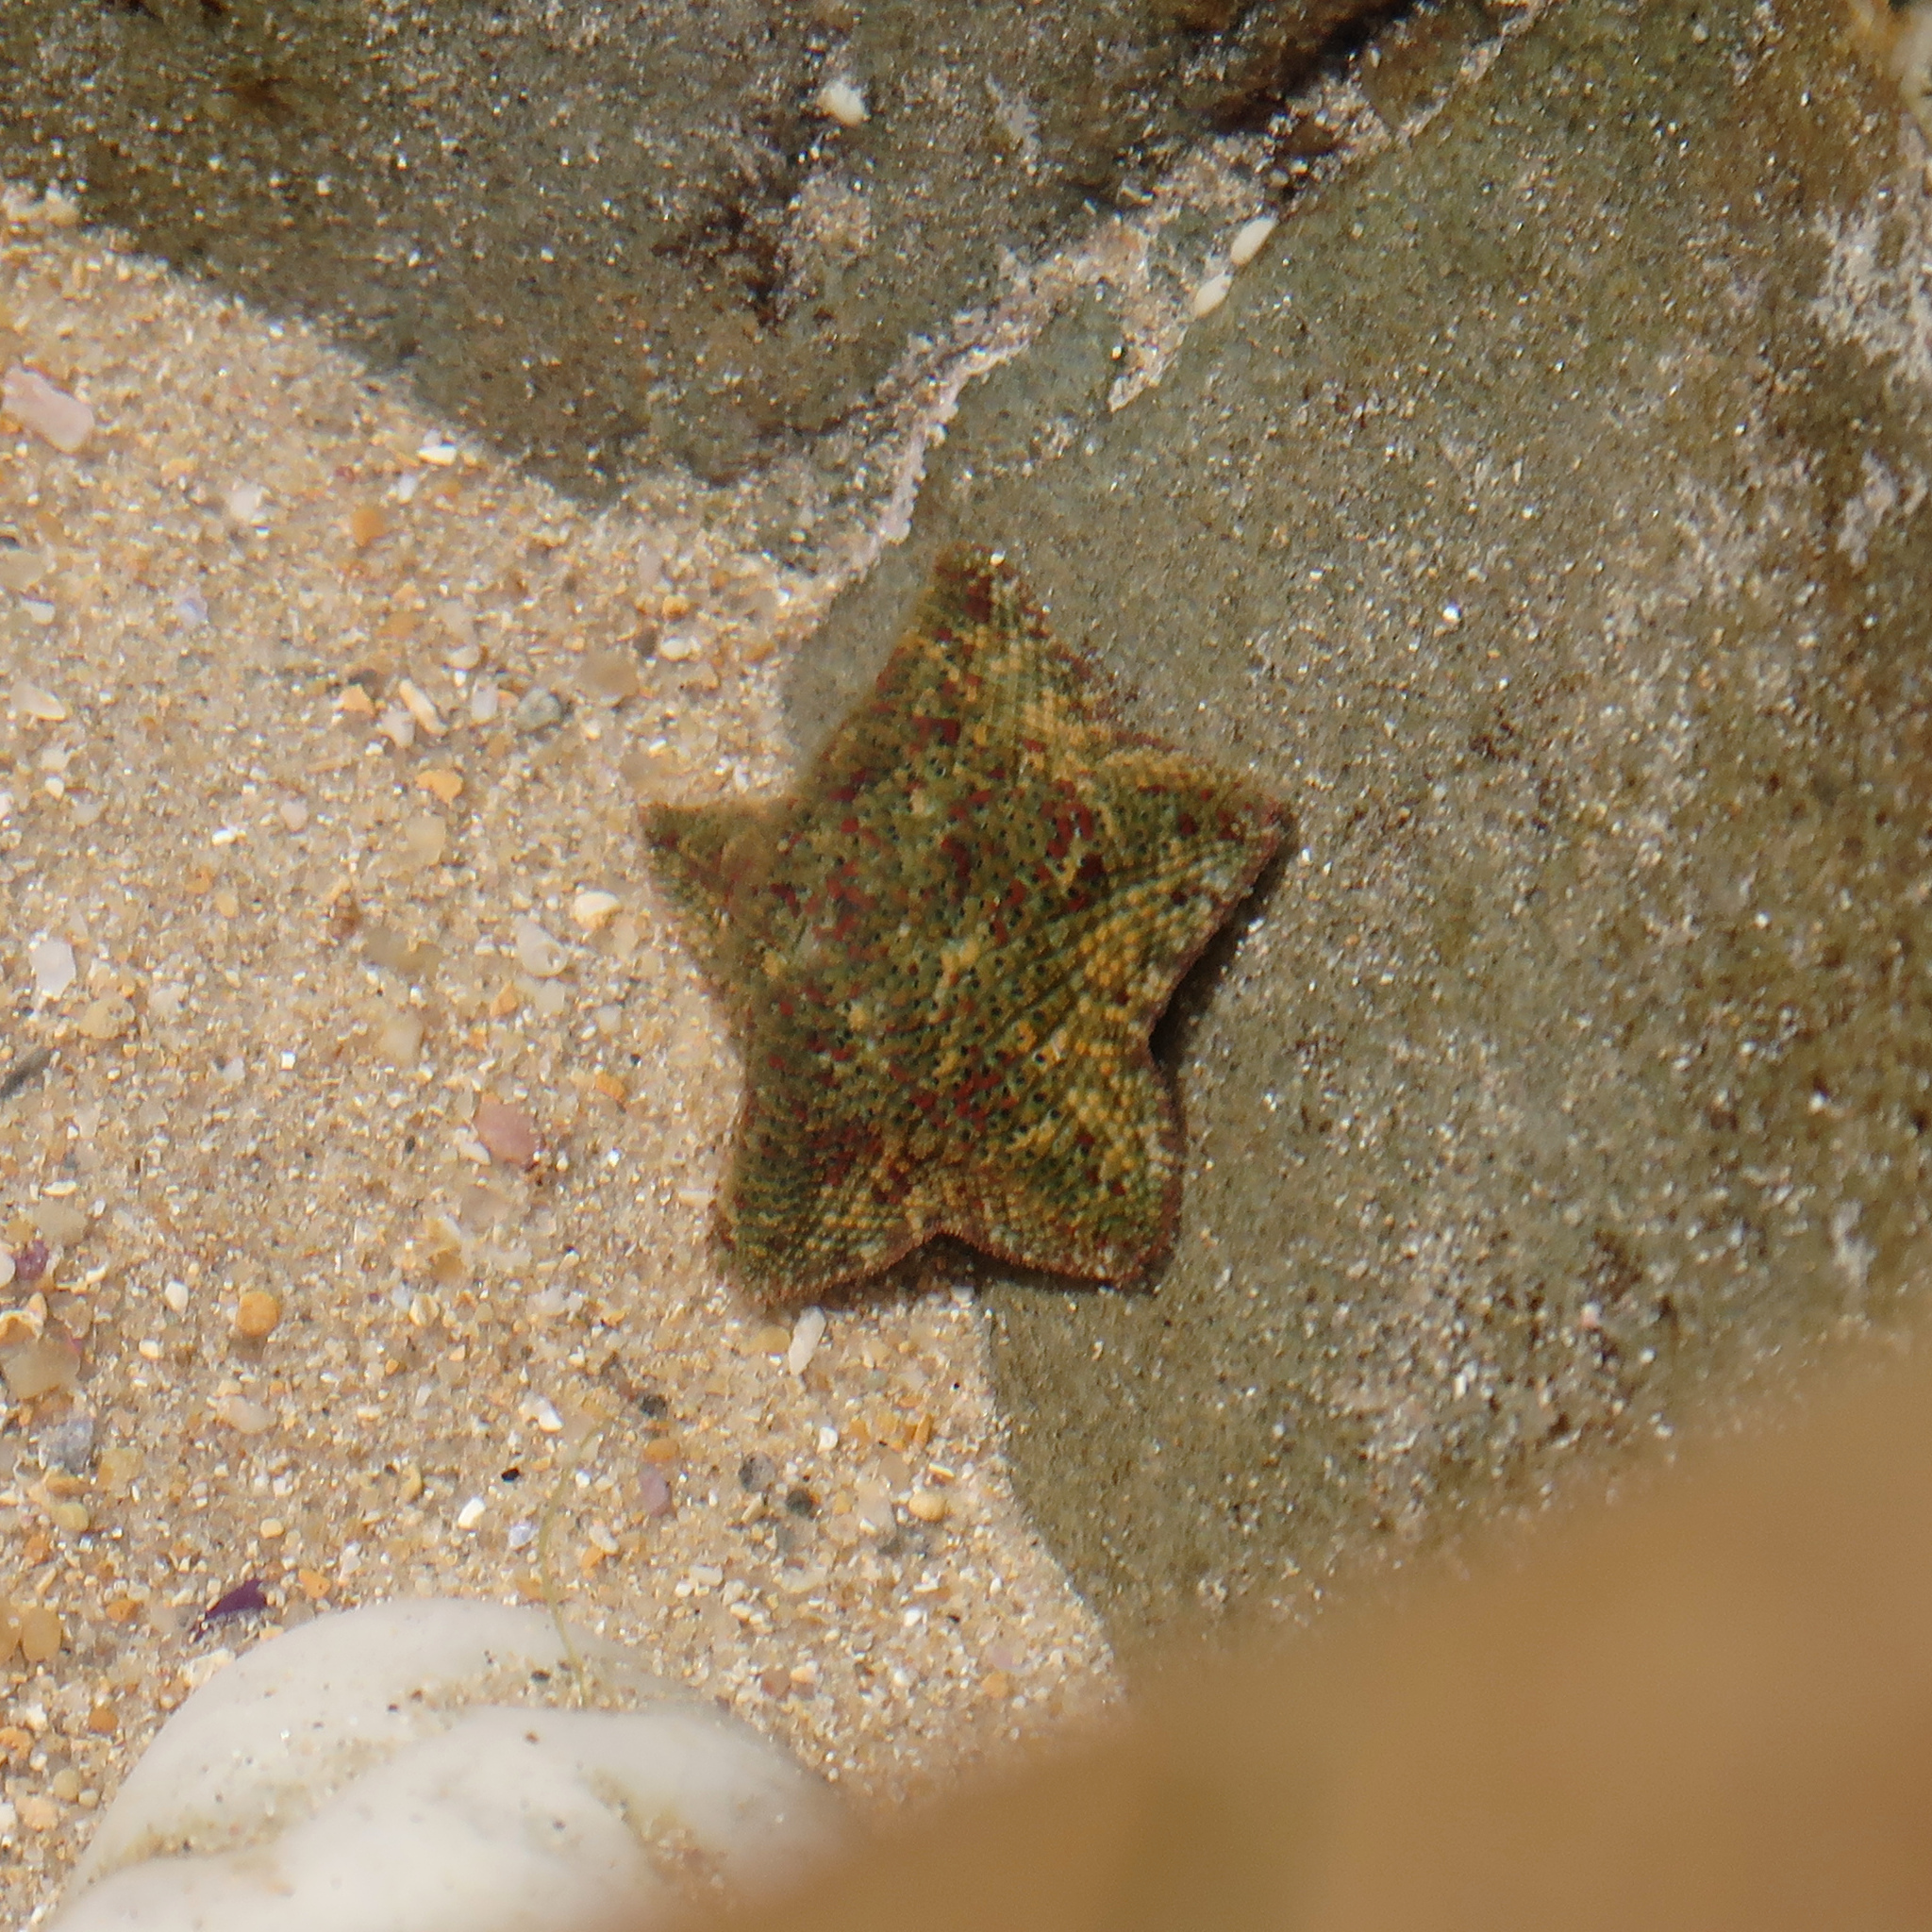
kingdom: Animalia
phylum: Echinodermata
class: Asteroidea
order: Valvatida
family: Asterinidae
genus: Parvulastra
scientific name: Parvulastra exigua
